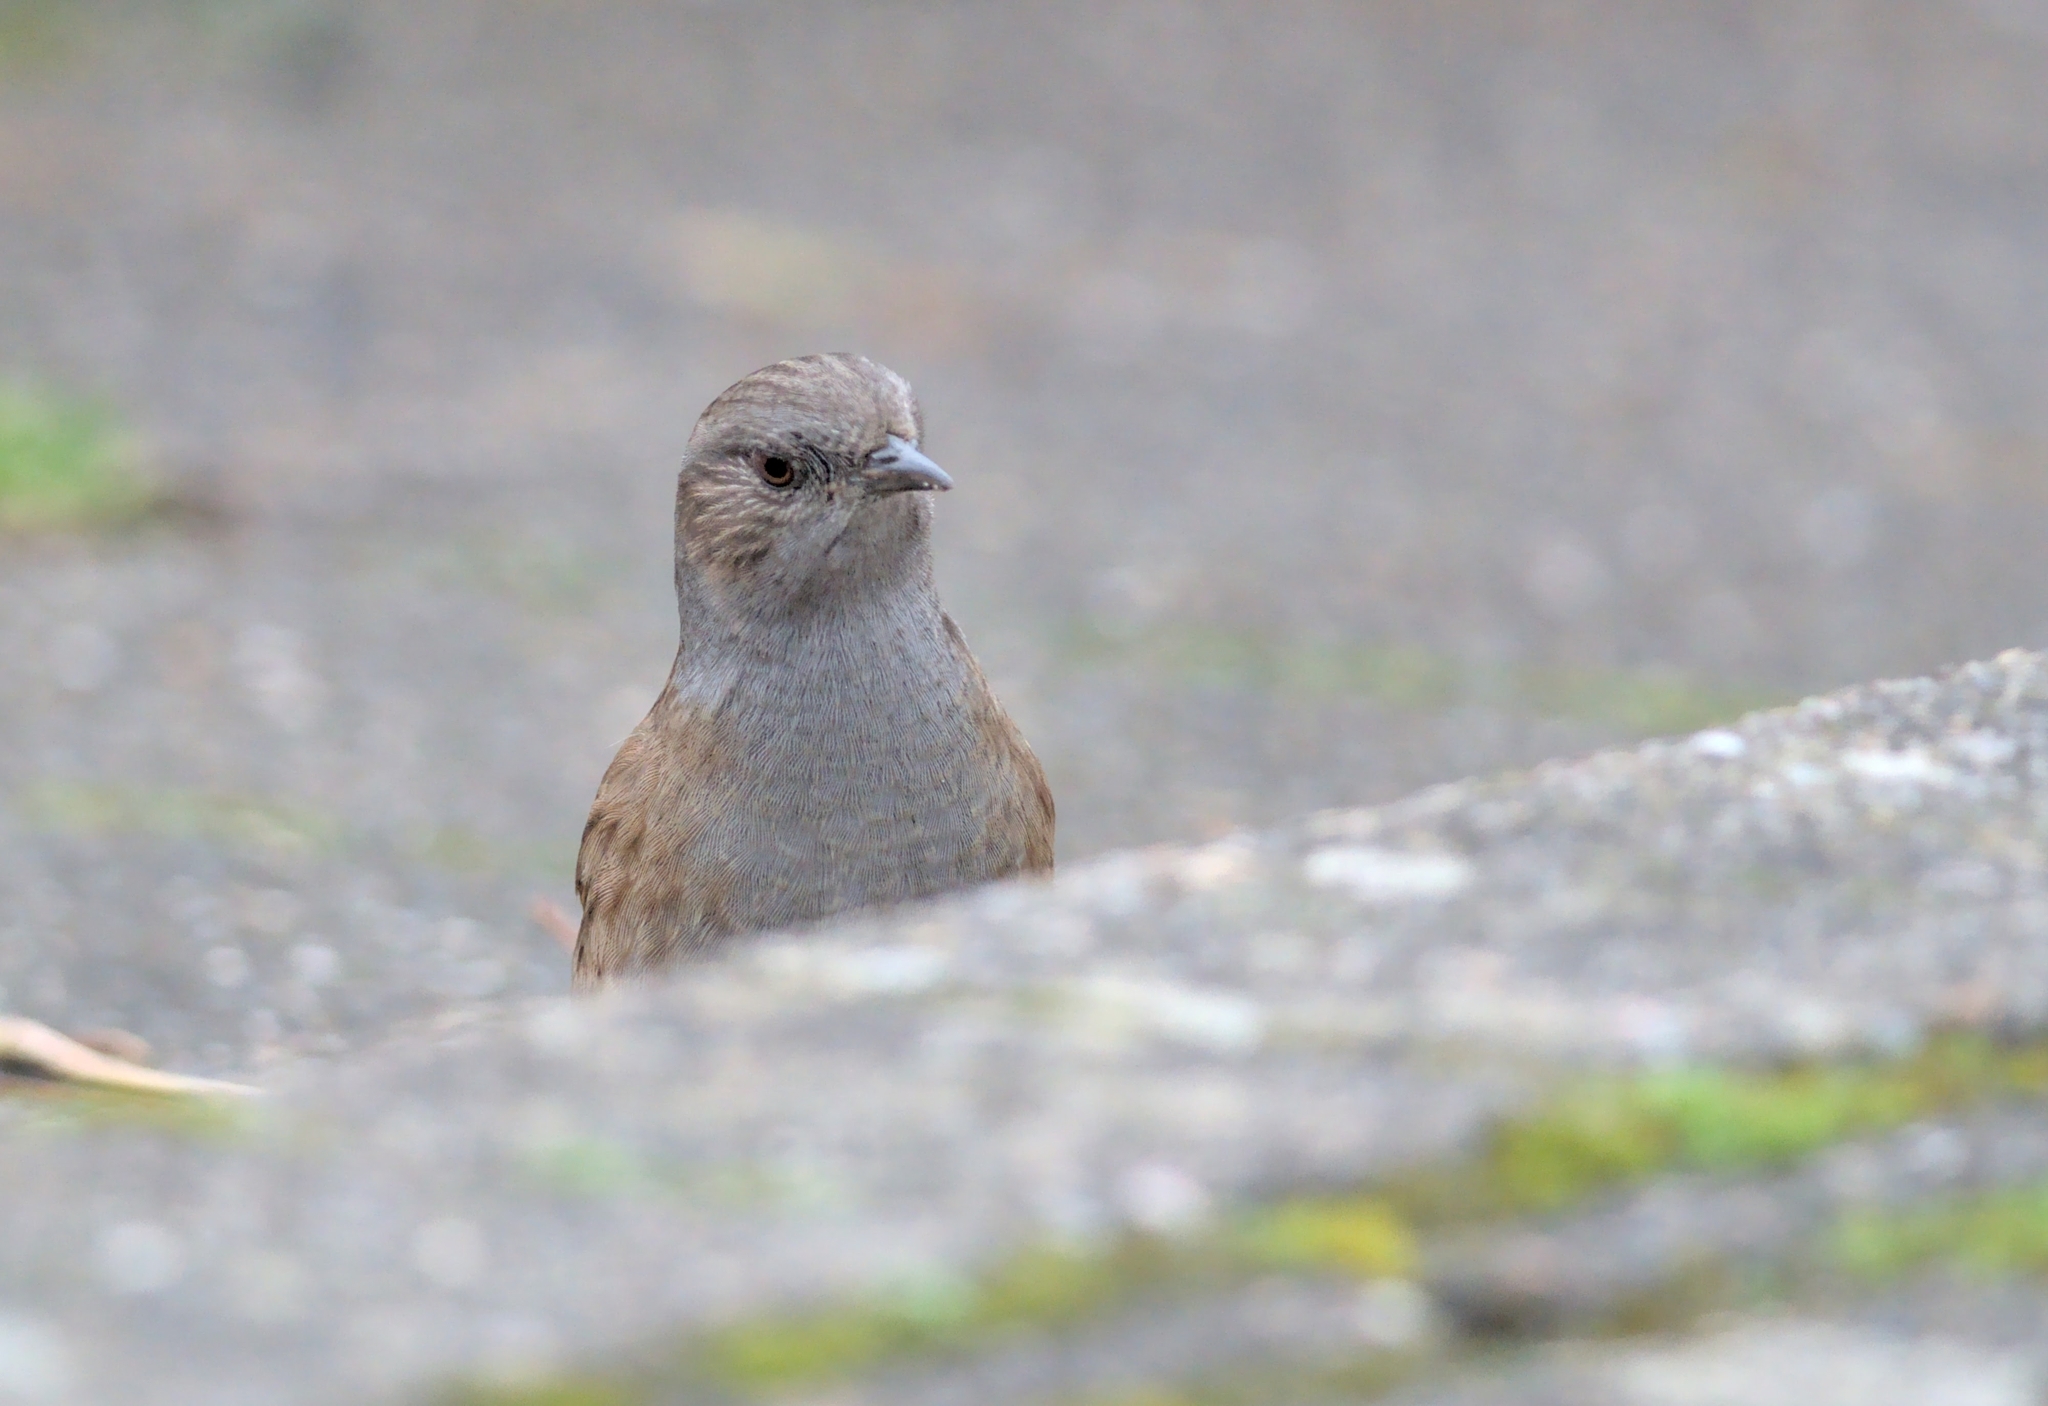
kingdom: Animalia
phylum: Chordata
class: Aves
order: Passeriformes
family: Prunellidae
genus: Prunella
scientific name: Prunella modularis
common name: Dunnock
